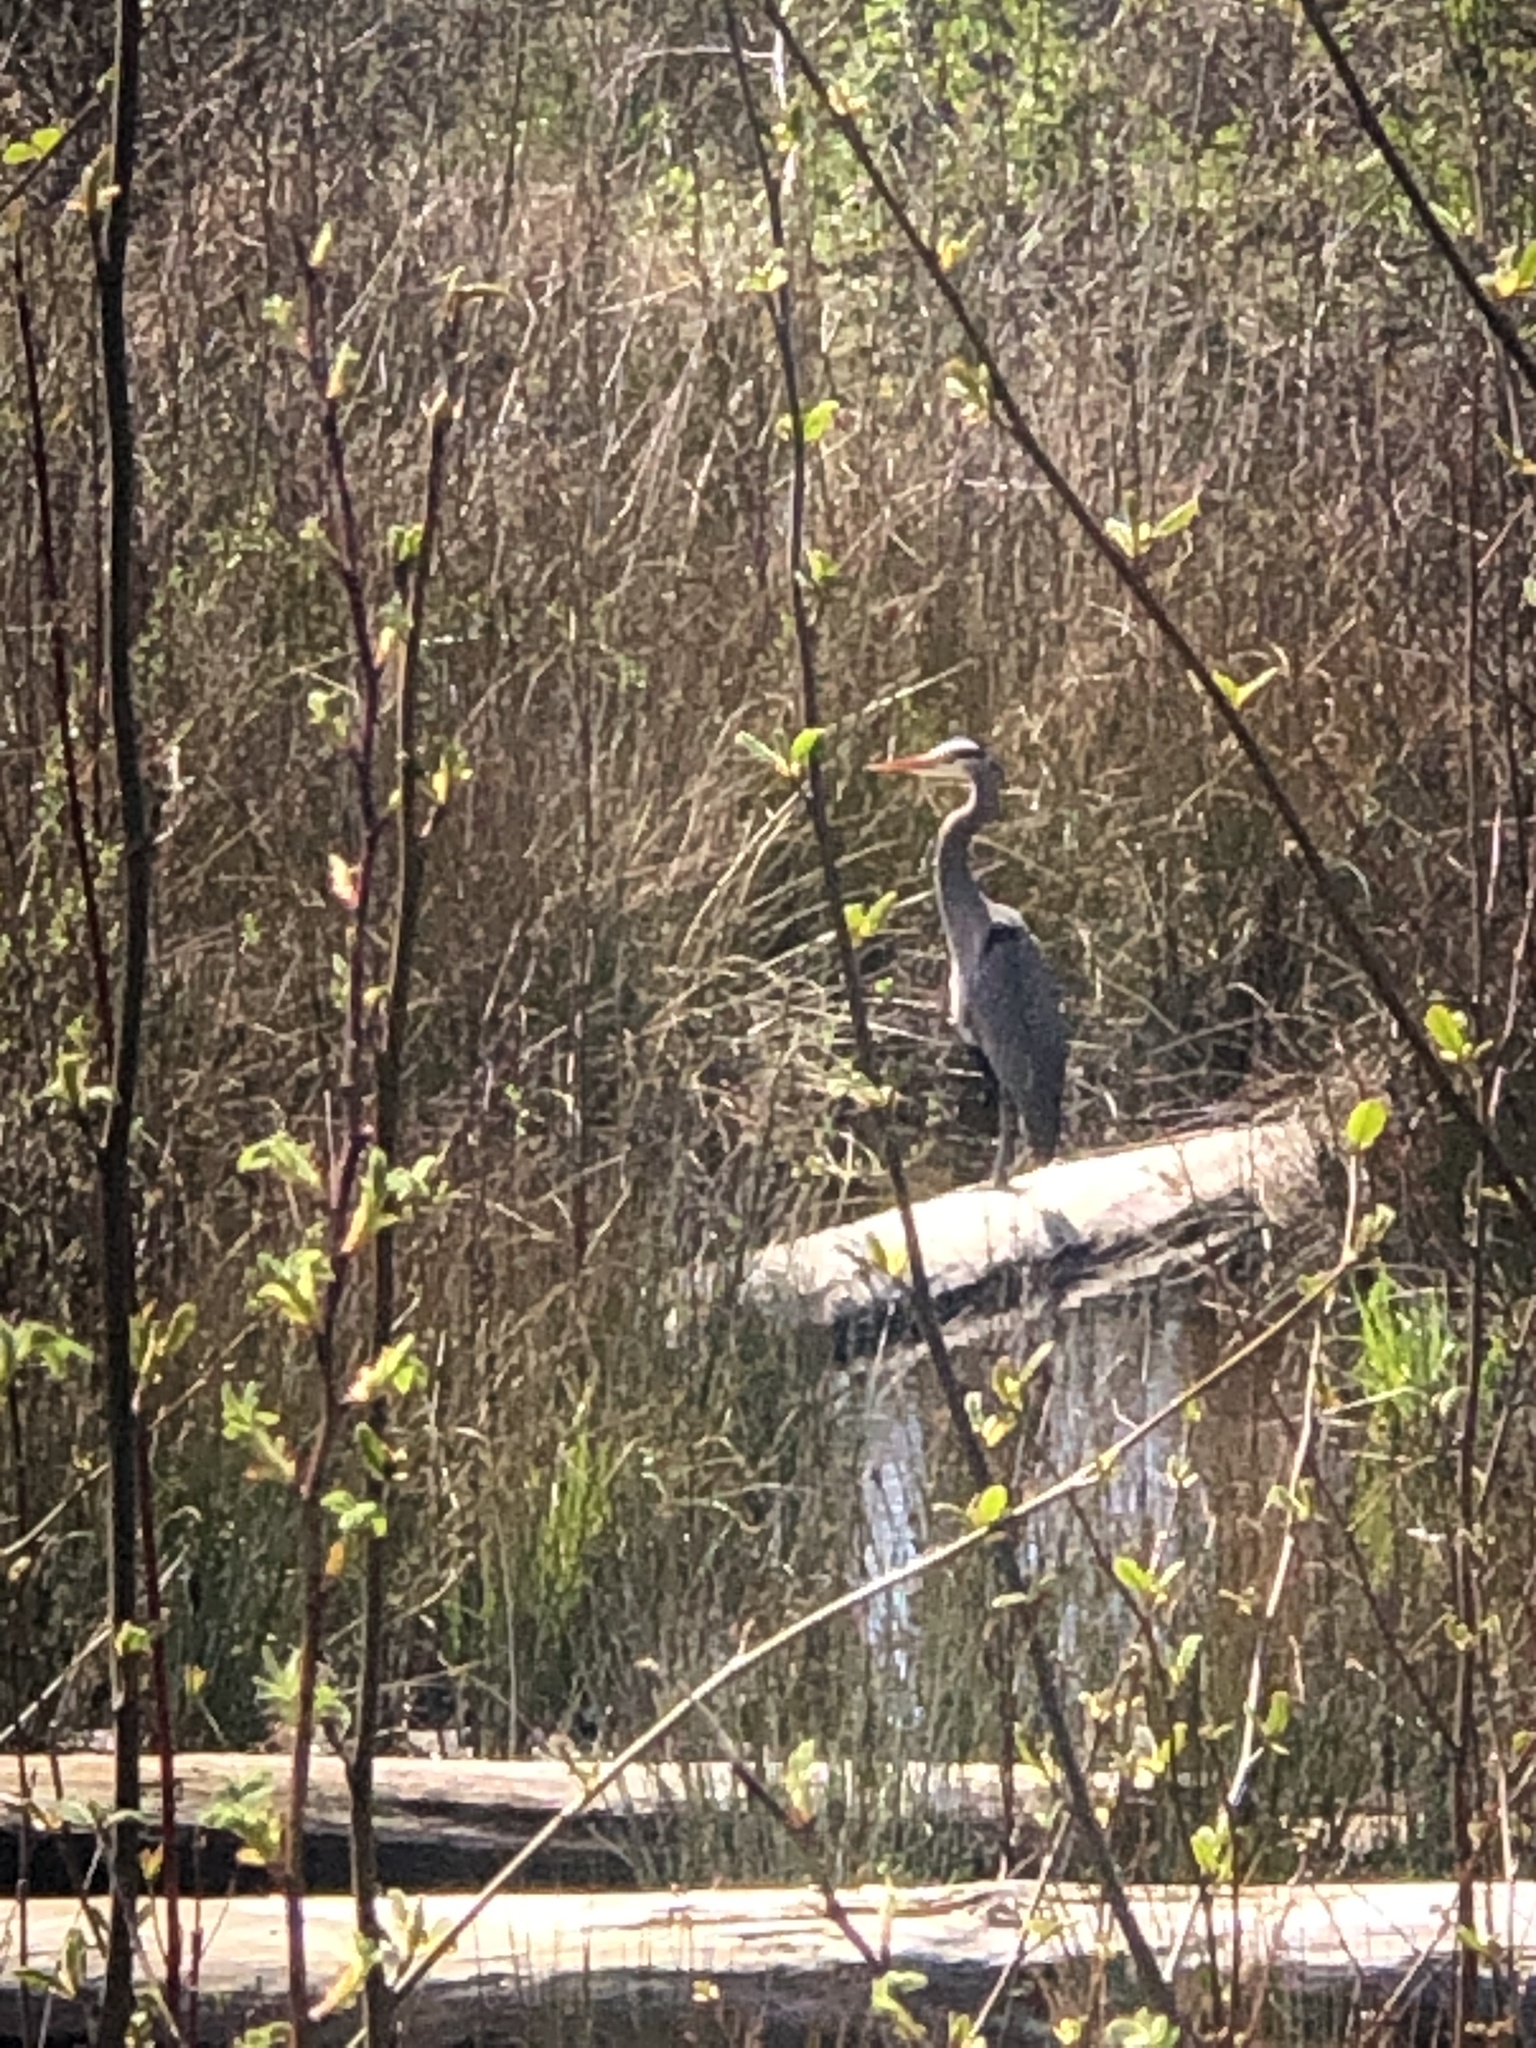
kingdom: Animalia
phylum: Chordata
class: Aves
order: Pelecaniformes
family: Ardeidae
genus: Ardea
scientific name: Ardea herodias
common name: Great blue heron
